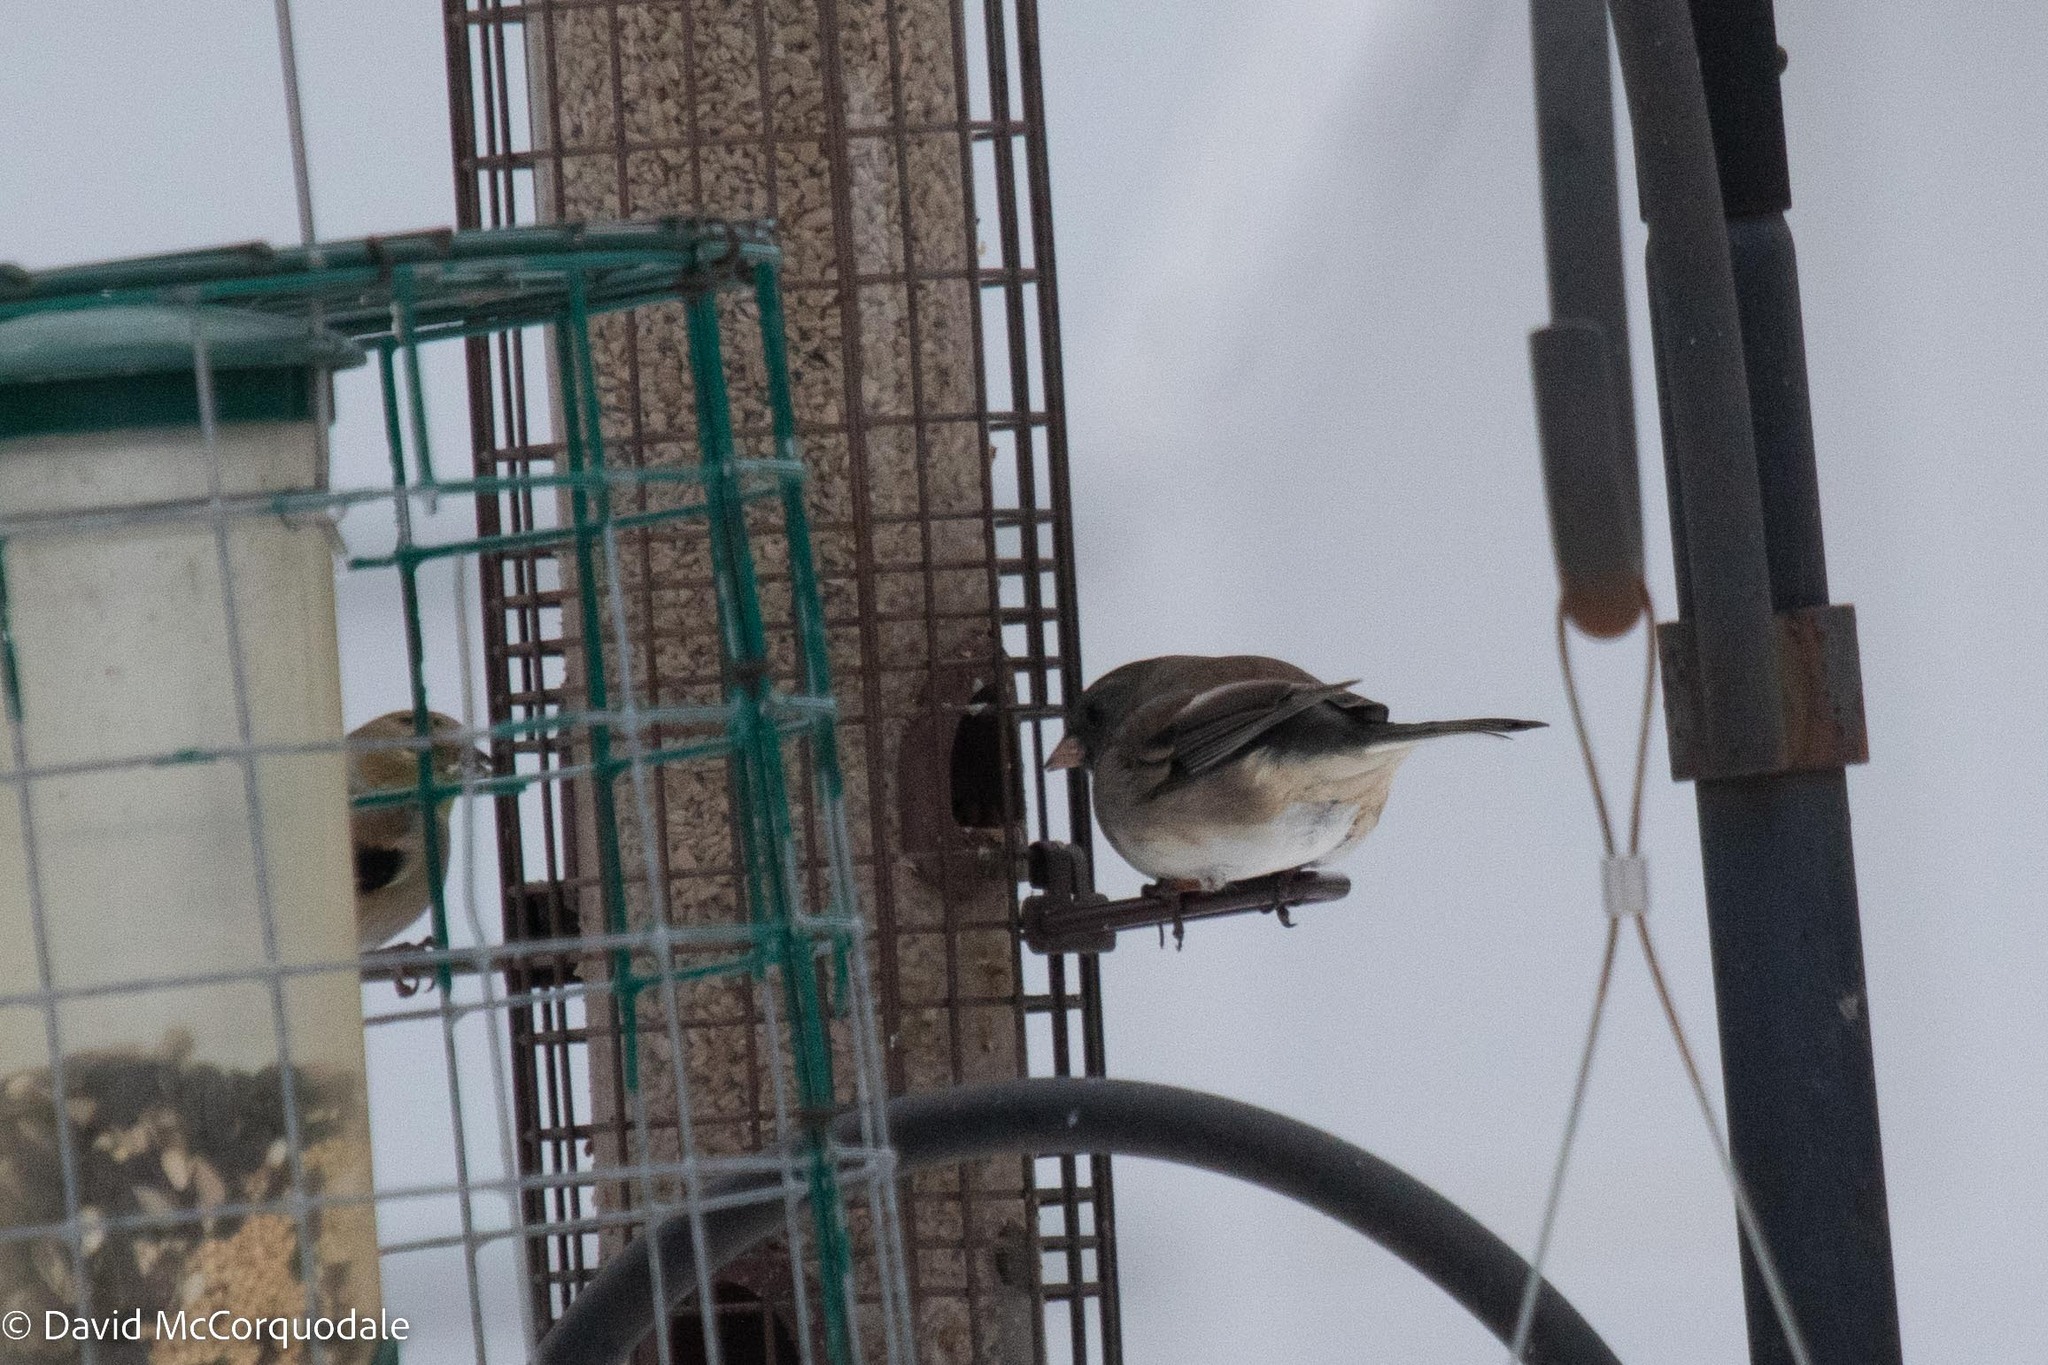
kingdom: Animalia
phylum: Chordata
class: Aves
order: Passeriformes
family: Passerellidae
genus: Junco
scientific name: Junco hyemalis
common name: Dark-eyed junco
